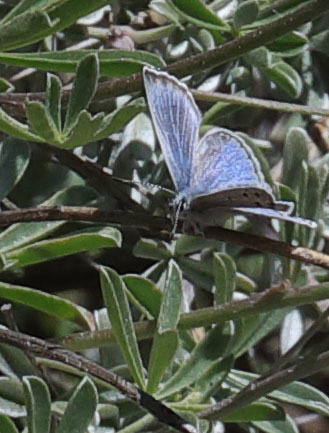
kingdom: Animalia
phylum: Arthropoda
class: Insecta
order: Lepidoptera
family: Lycaenidae
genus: Icaricia
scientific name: Icaricia icarioides
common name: Boisduval's blue
